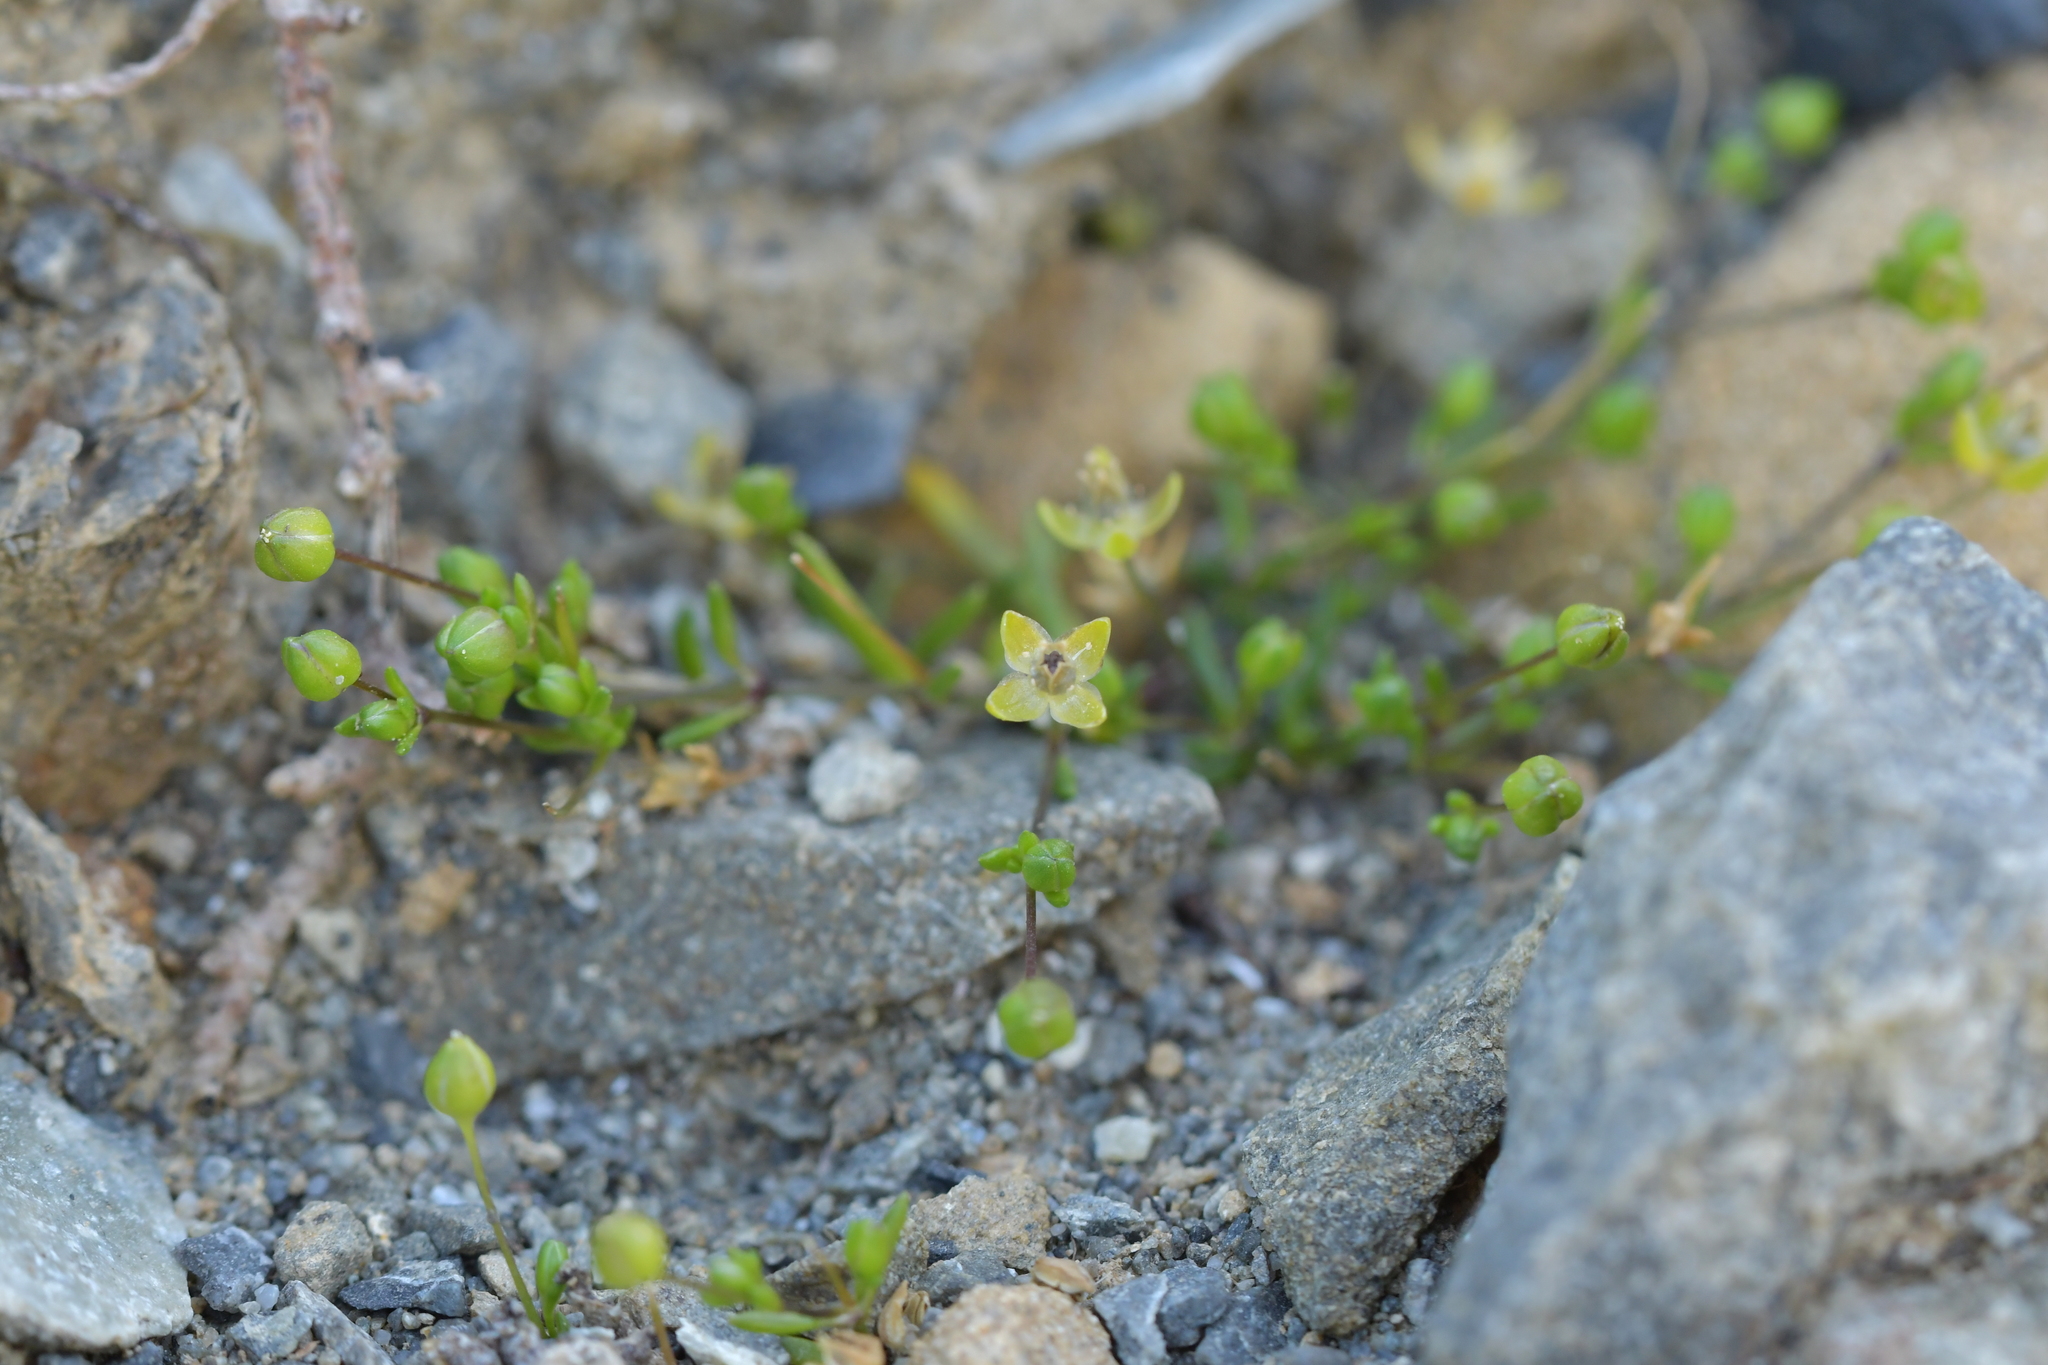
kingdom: Plantae
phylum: Tracheophyta
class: Magnoliopsida
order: Caryophyllales
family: Caryophyllaceae
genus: Sagina
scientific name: Sagina apetala
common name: Annual pearlwort
